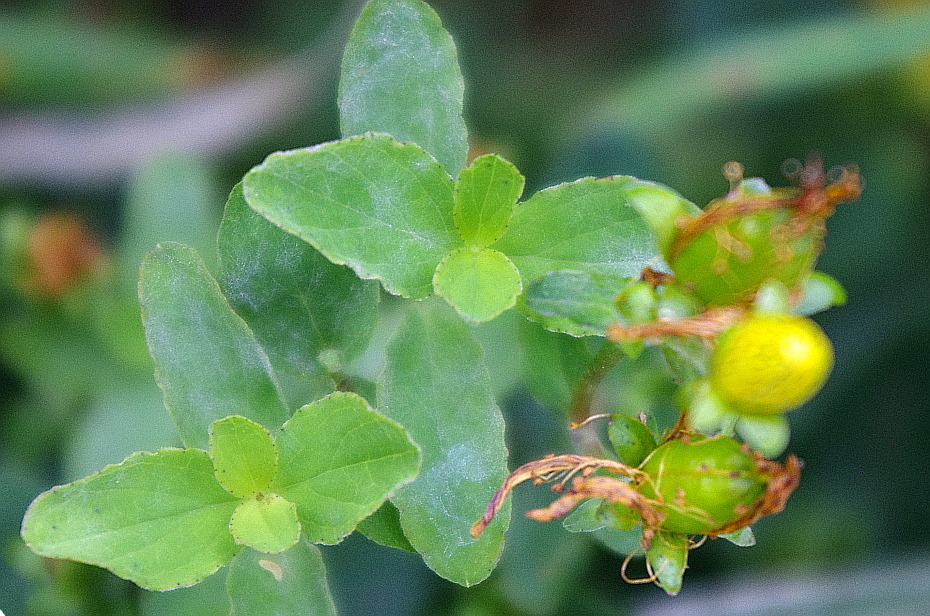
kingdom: Plantae
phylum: Tracheophyta
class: Magnoliopsida
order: Malpighiales
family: Hypericaceae
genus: Hypericum
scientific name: Hypericum maculatum
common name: Imperforate st. john's-wort
